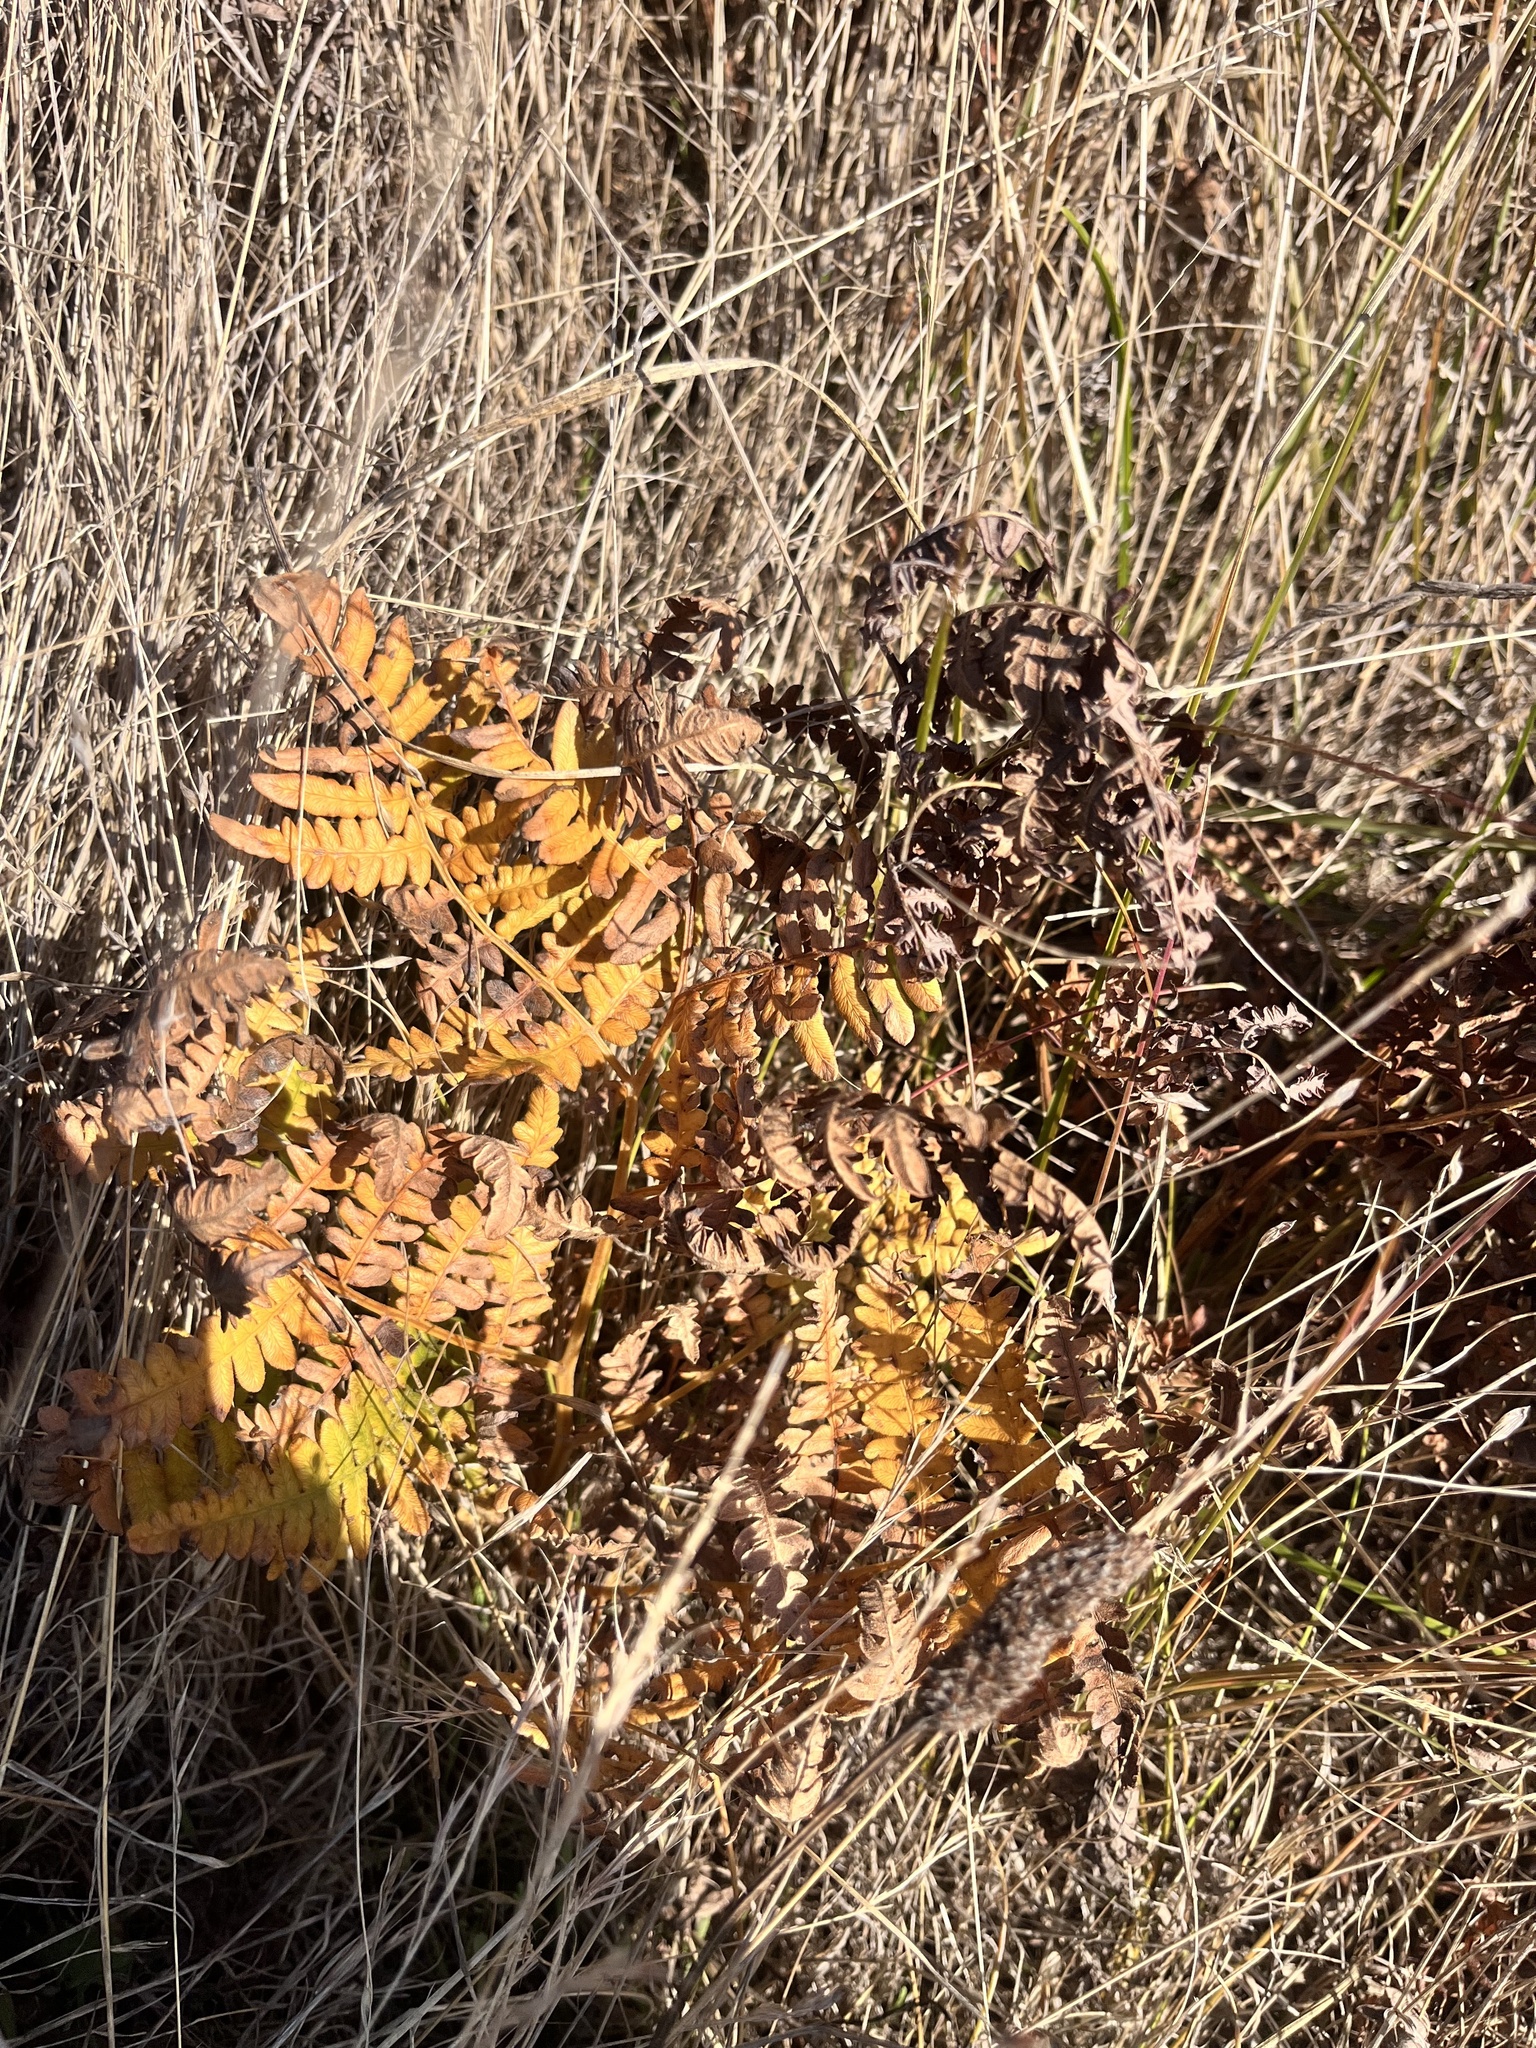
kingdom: Plantae
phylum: Tracheophyta
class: Polypodiopsida
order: Polypodiales
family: Dennstaedtiaceae
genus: Pteridium
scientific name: Pteridium aquilinum
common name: Bracken
